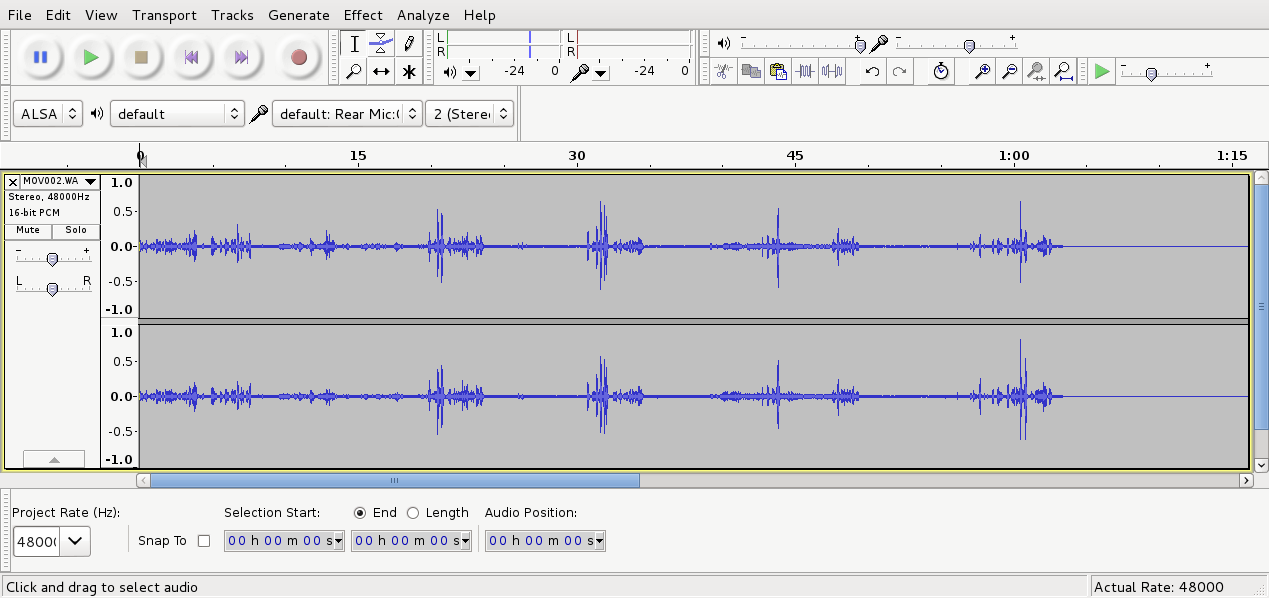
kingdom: Animalia
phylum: Chordata
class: Aves
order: Passeriformes
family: Meliphagidae
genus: Prosthemadera
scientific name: Prosthemadera novaeseelandiae
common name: Tui
